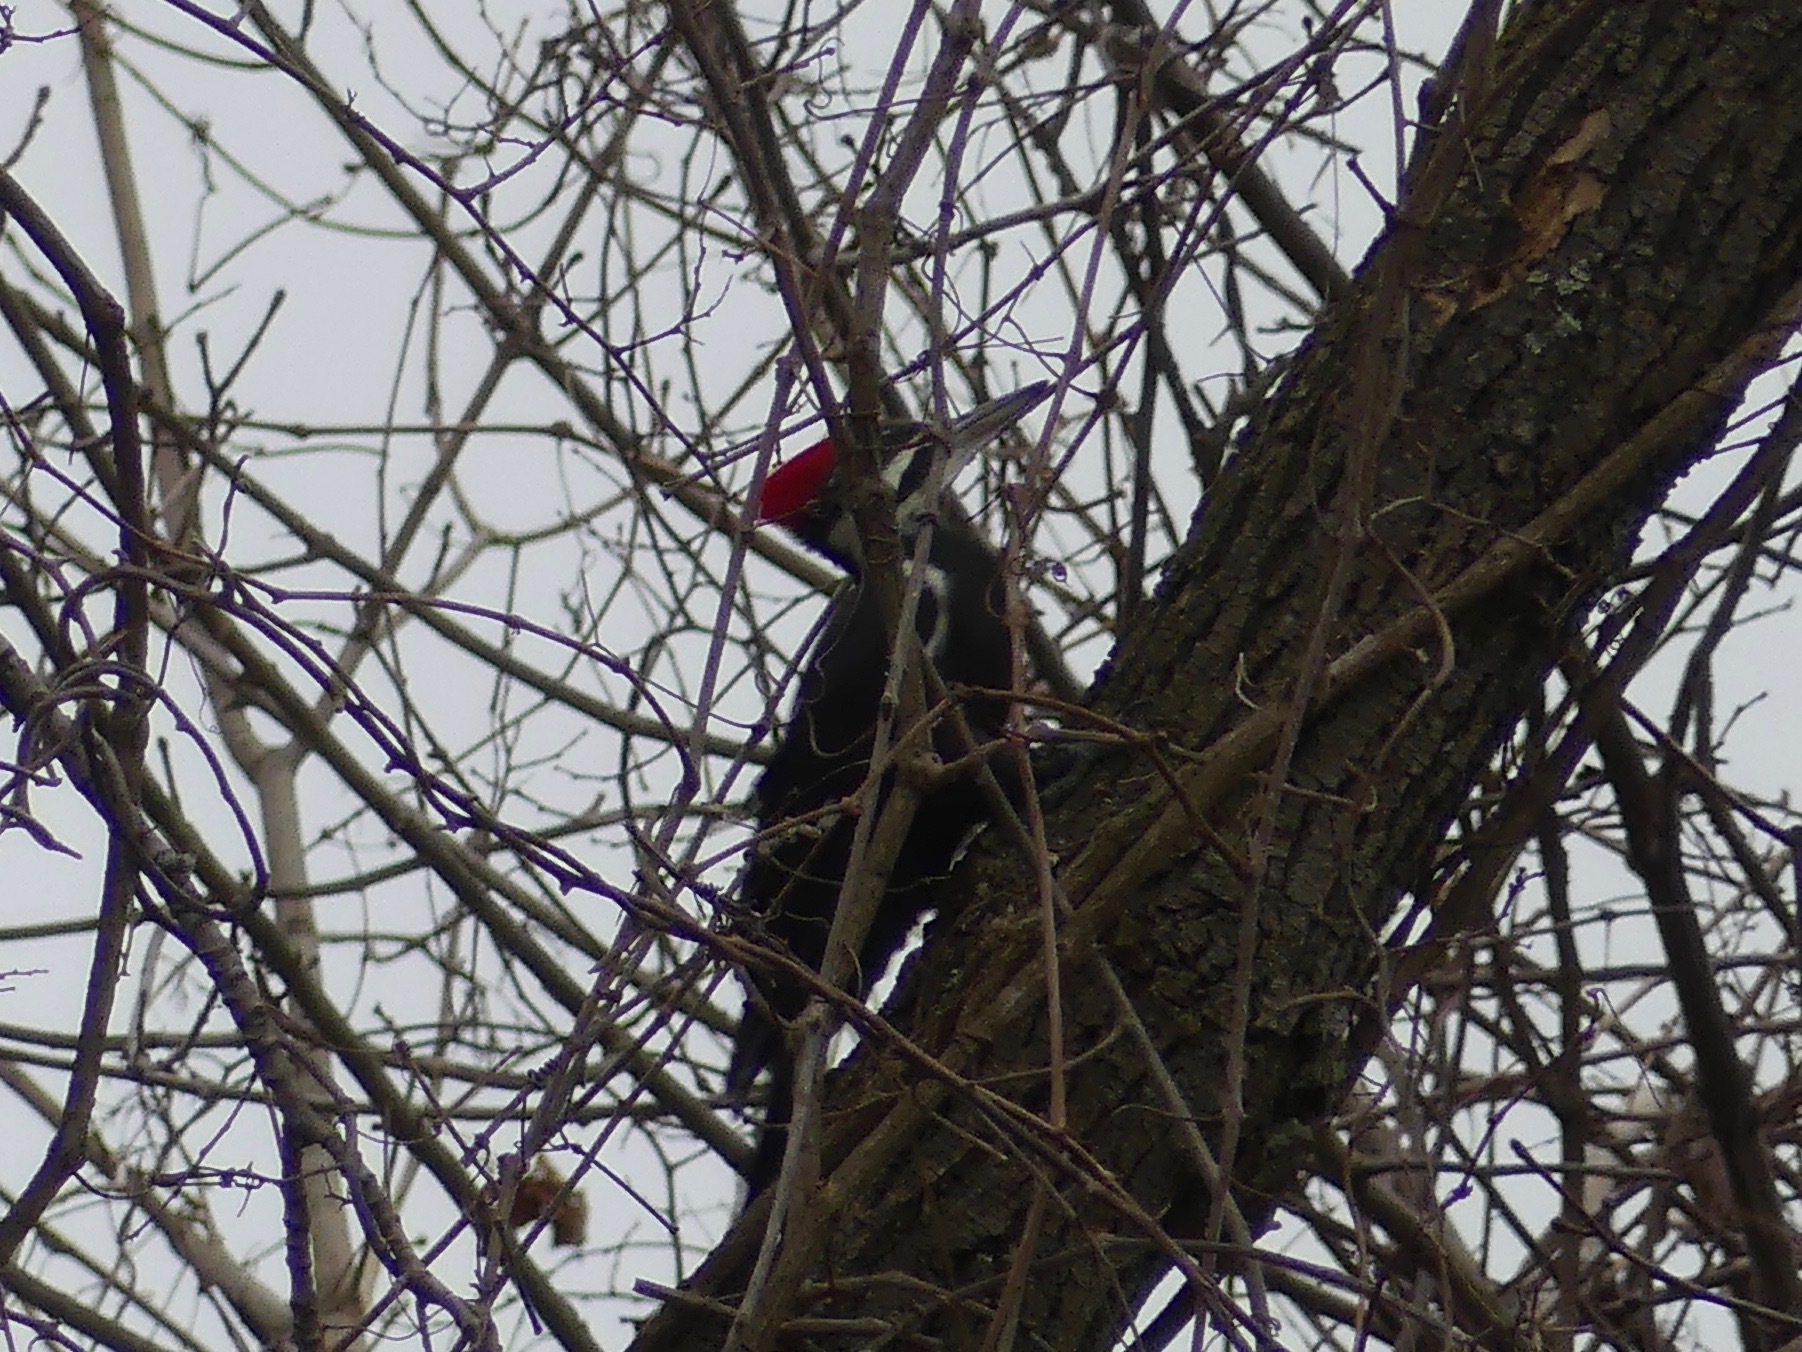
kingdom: Animalia
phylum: Chordata
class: Aves
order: Piciformes
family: Picidae
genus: Dryocopus
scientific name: Dryocopus pileatus
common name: Pileated woodpecker
